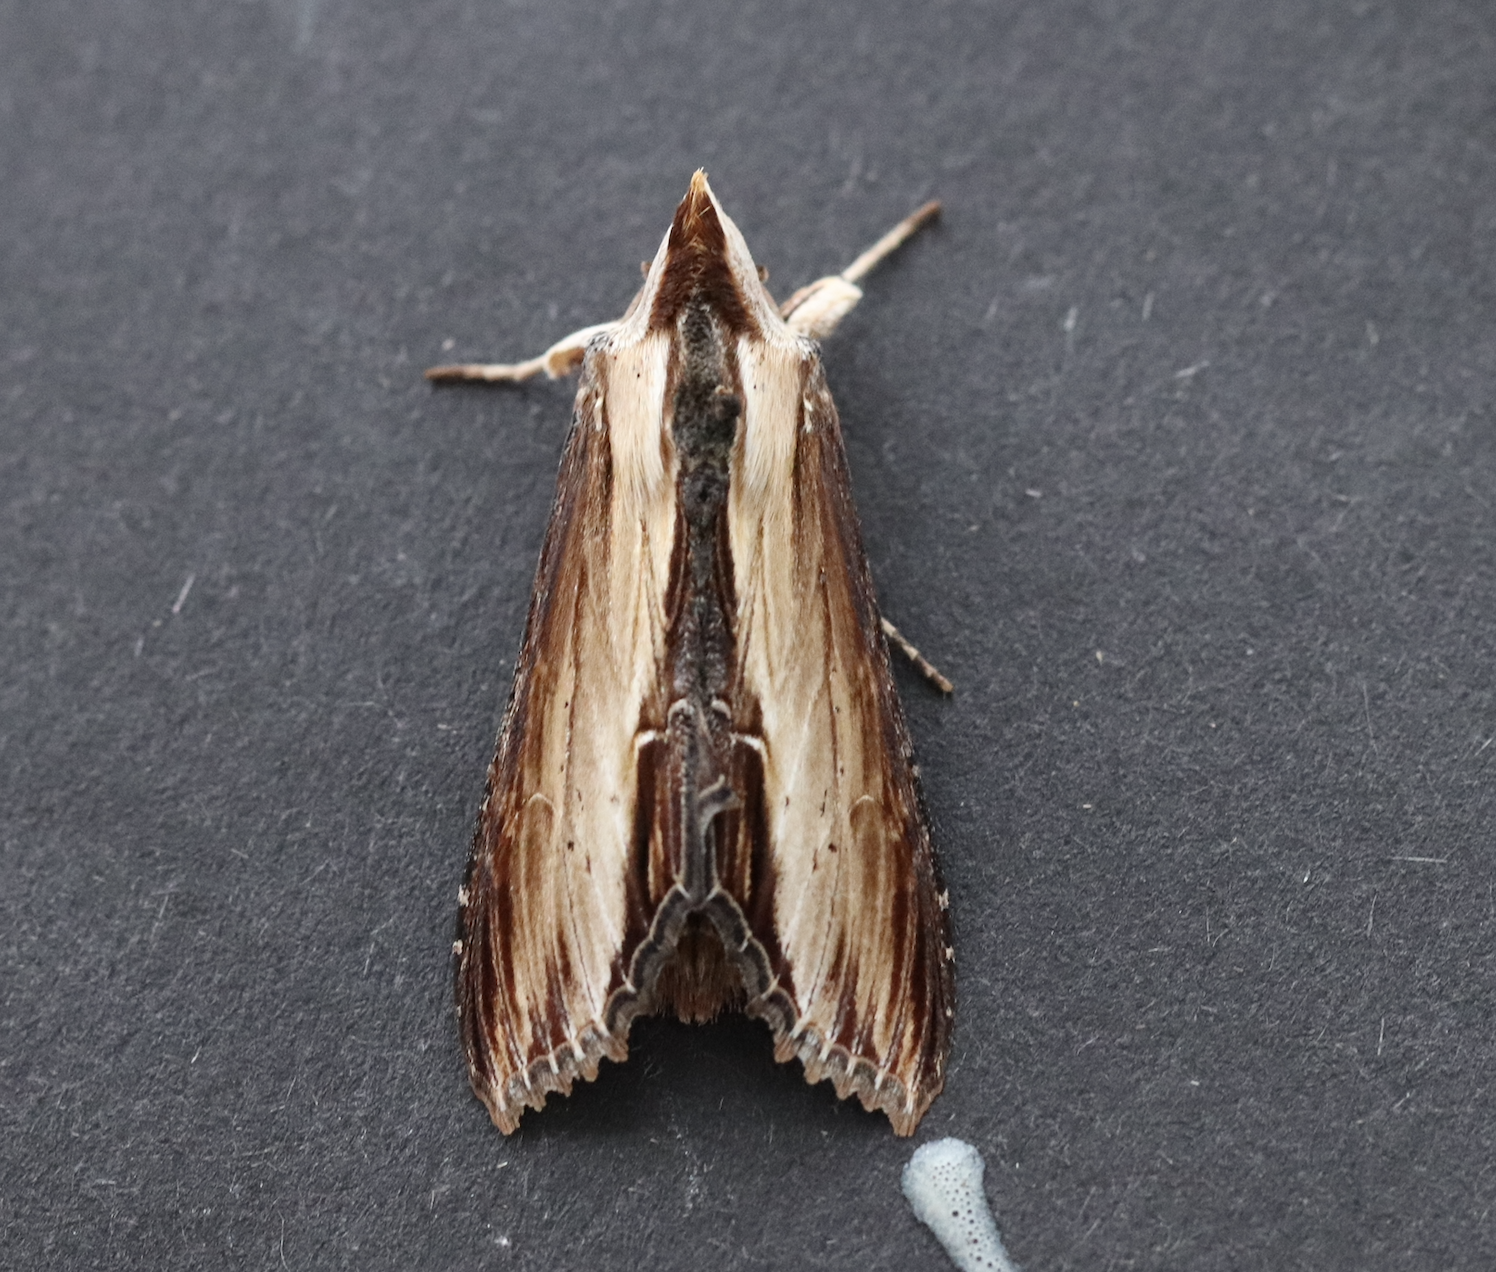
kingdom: Animalia
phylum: Arthropoda
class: Insecta
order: Lepidoptera
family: Noctuidae
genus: Cucullia
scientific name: Cucullia verbasci
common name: Mullein
